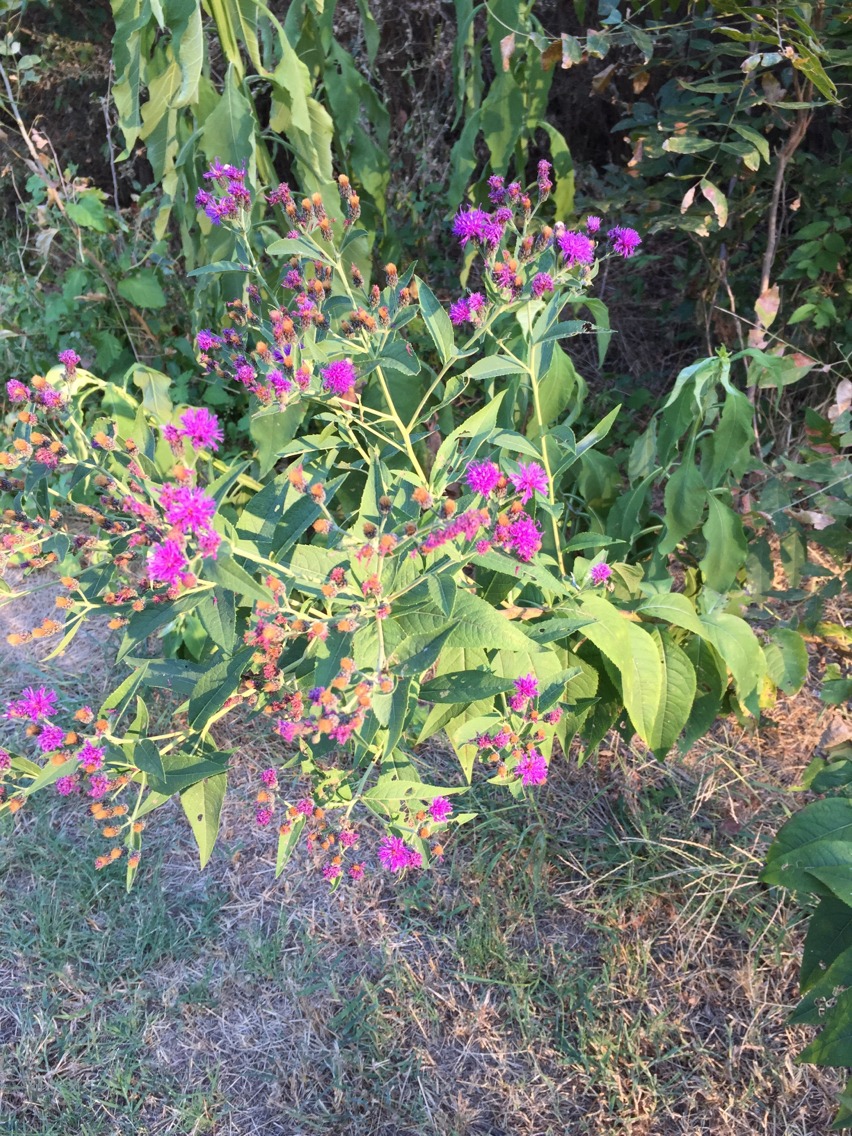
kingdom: Plantae
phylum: Tracheophyta
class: Magnoliopsida
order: Asterales
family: Asteraceae
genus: Vernonia
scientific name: Vernonia baldwinii
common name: Western ironweed
